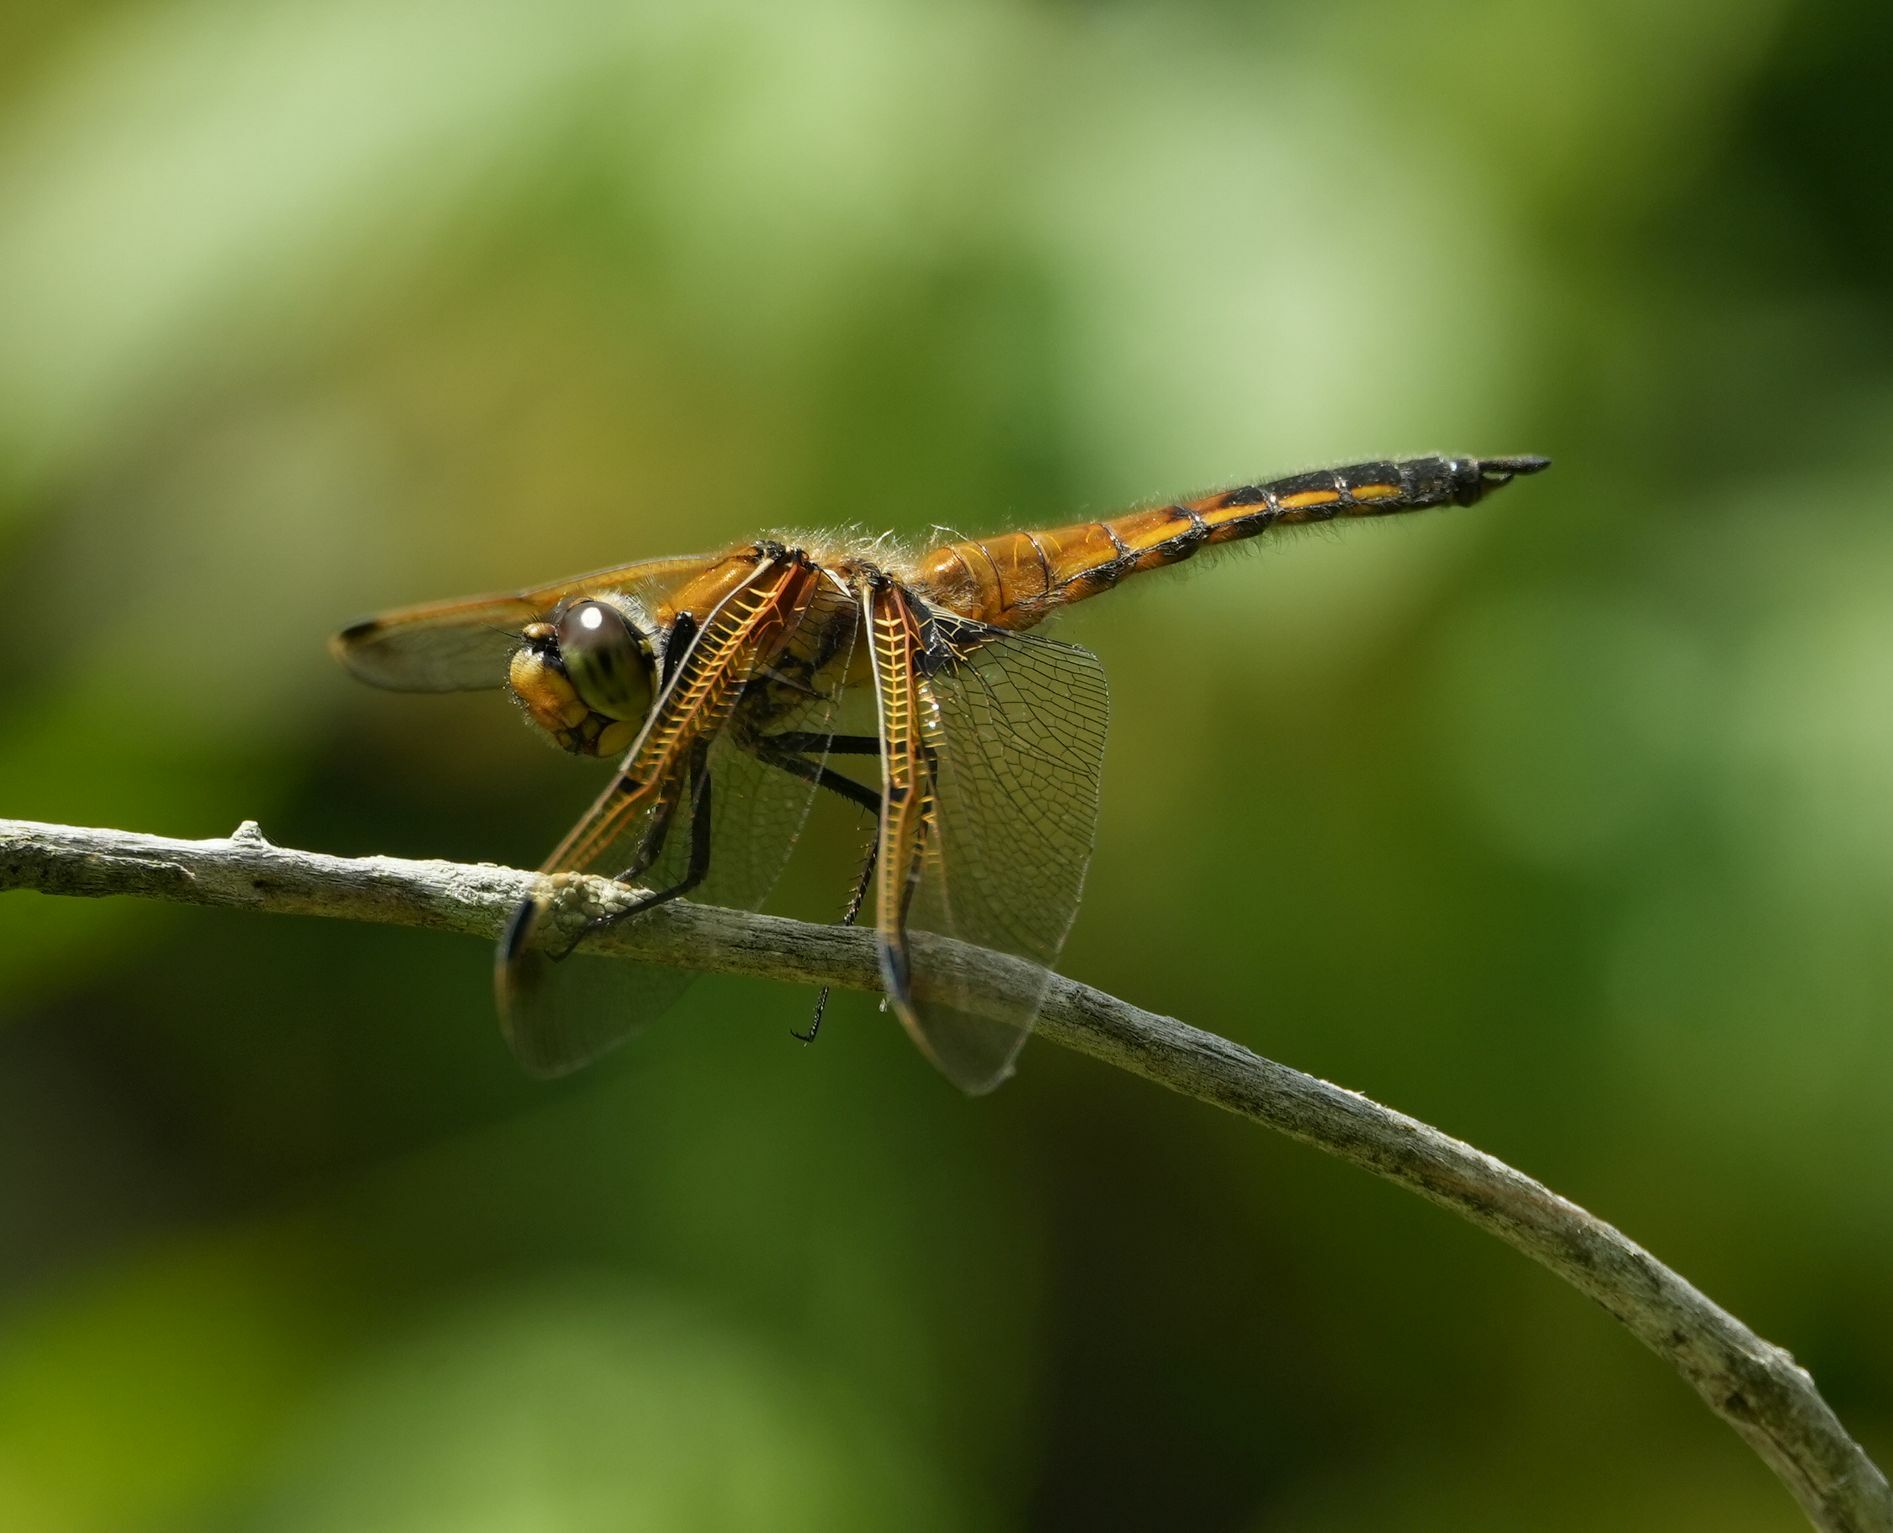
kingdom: Animalia
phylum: Arthropoda
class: Insecta
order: Odonata
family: Libellulidae
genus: Libellula
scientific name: Libellula quadrimaculata
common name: Four-spotted chaser
